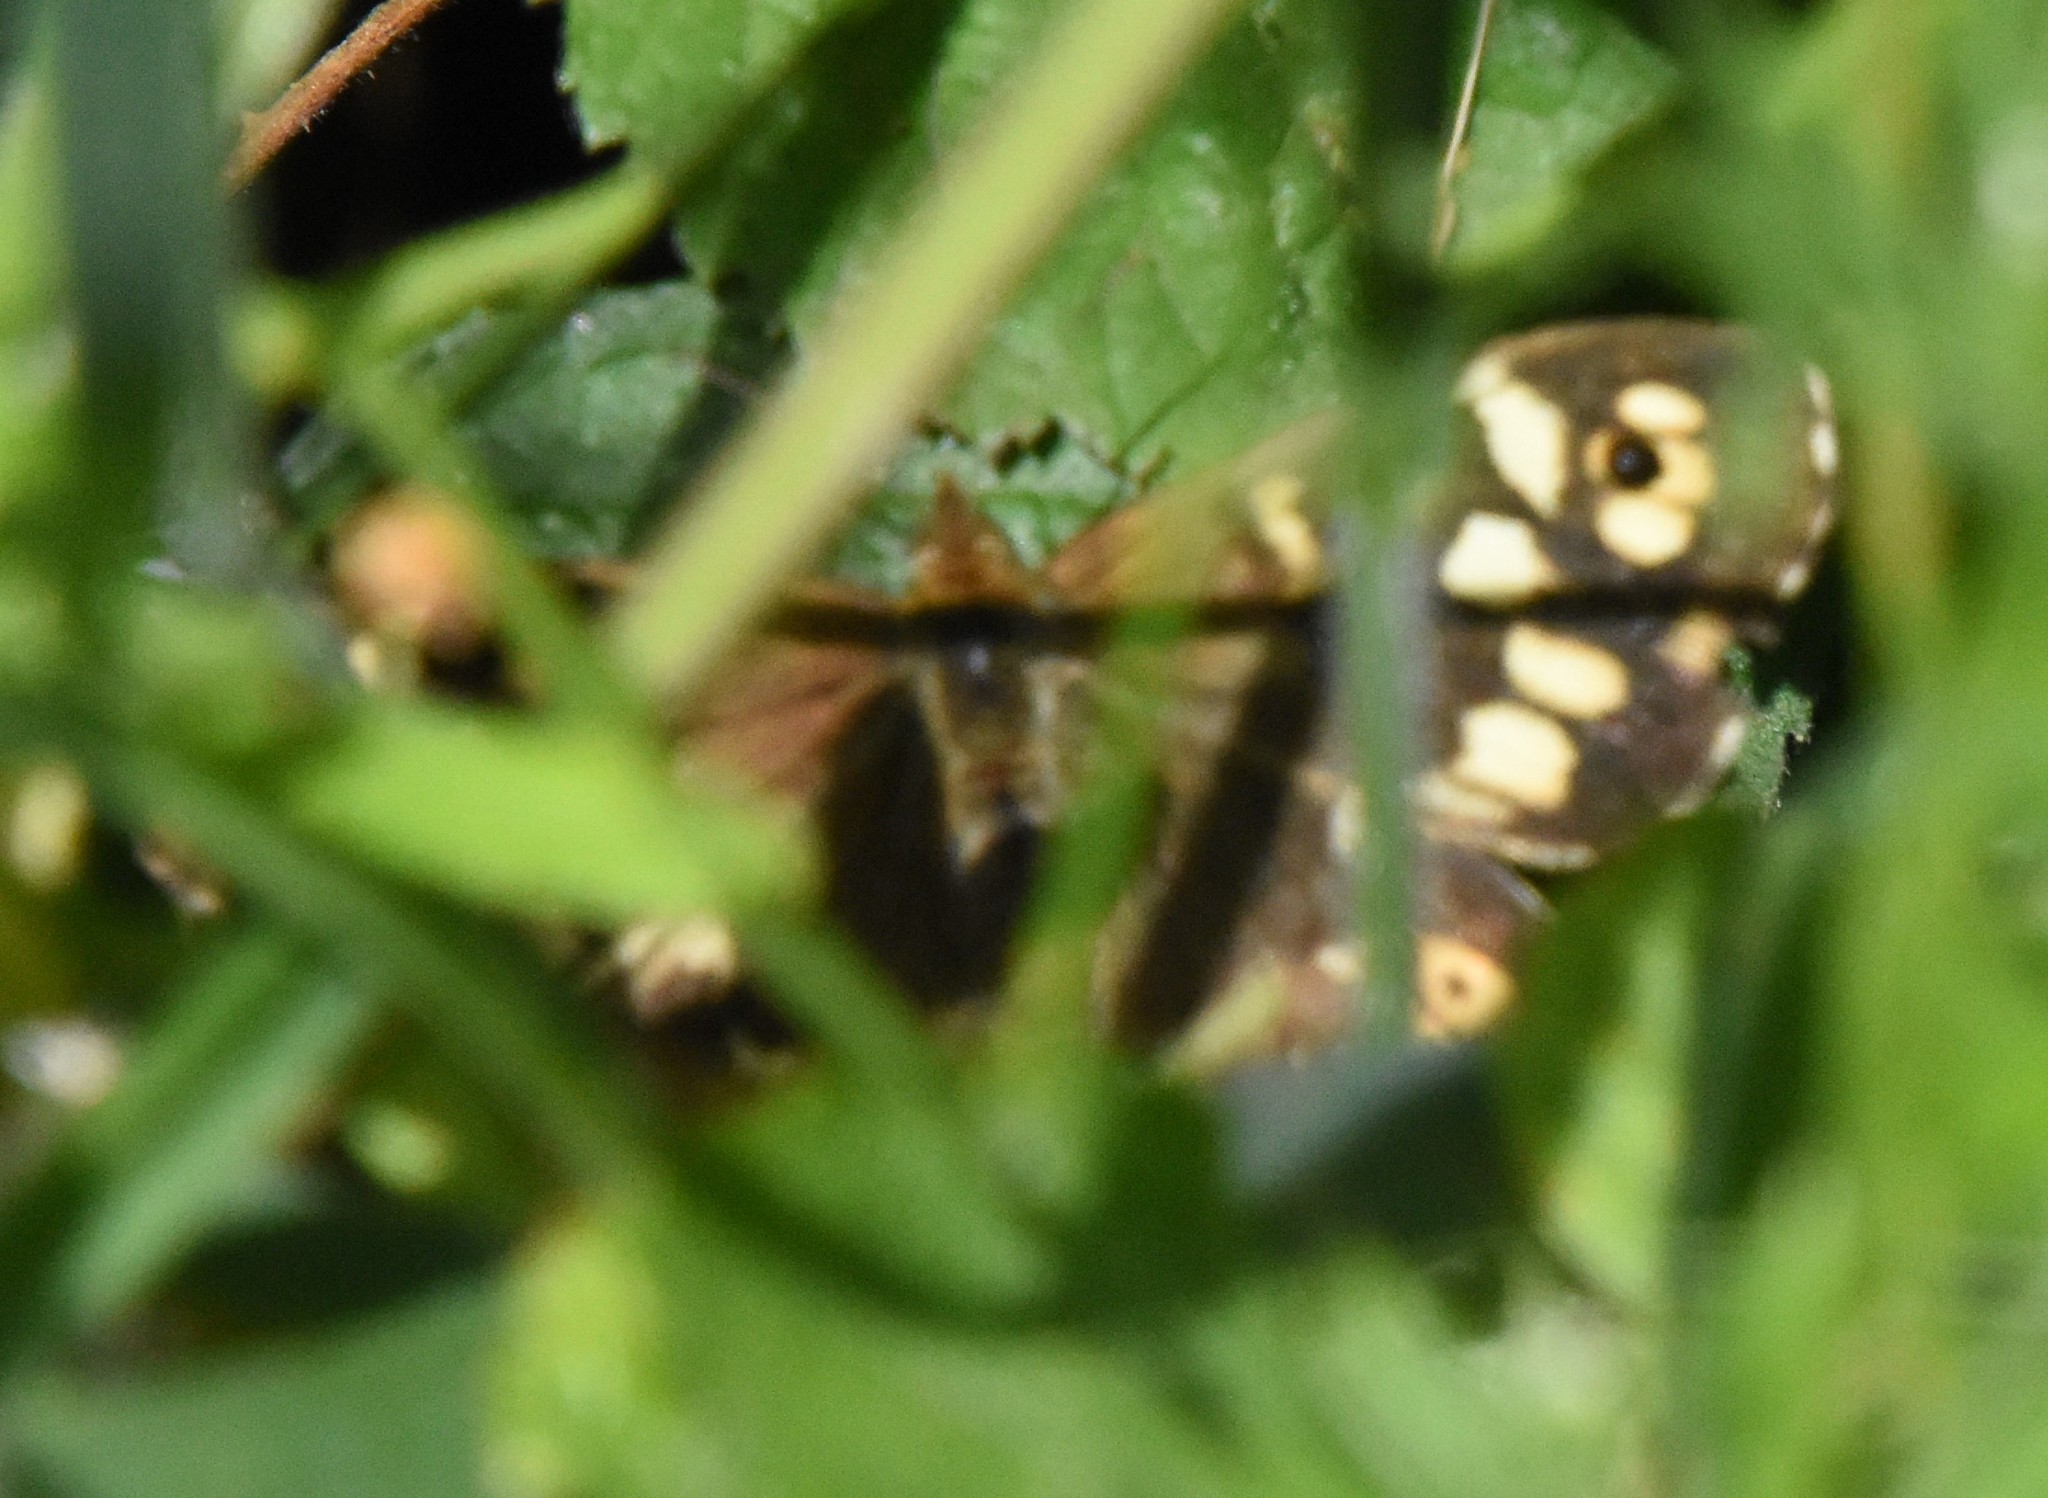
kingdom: Animalia
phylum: Arthropoda
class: Insecta
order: Lepidoptera
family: Nymphalidae
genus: Pararge
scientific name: Pararge aegeria
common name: Speckled wood
